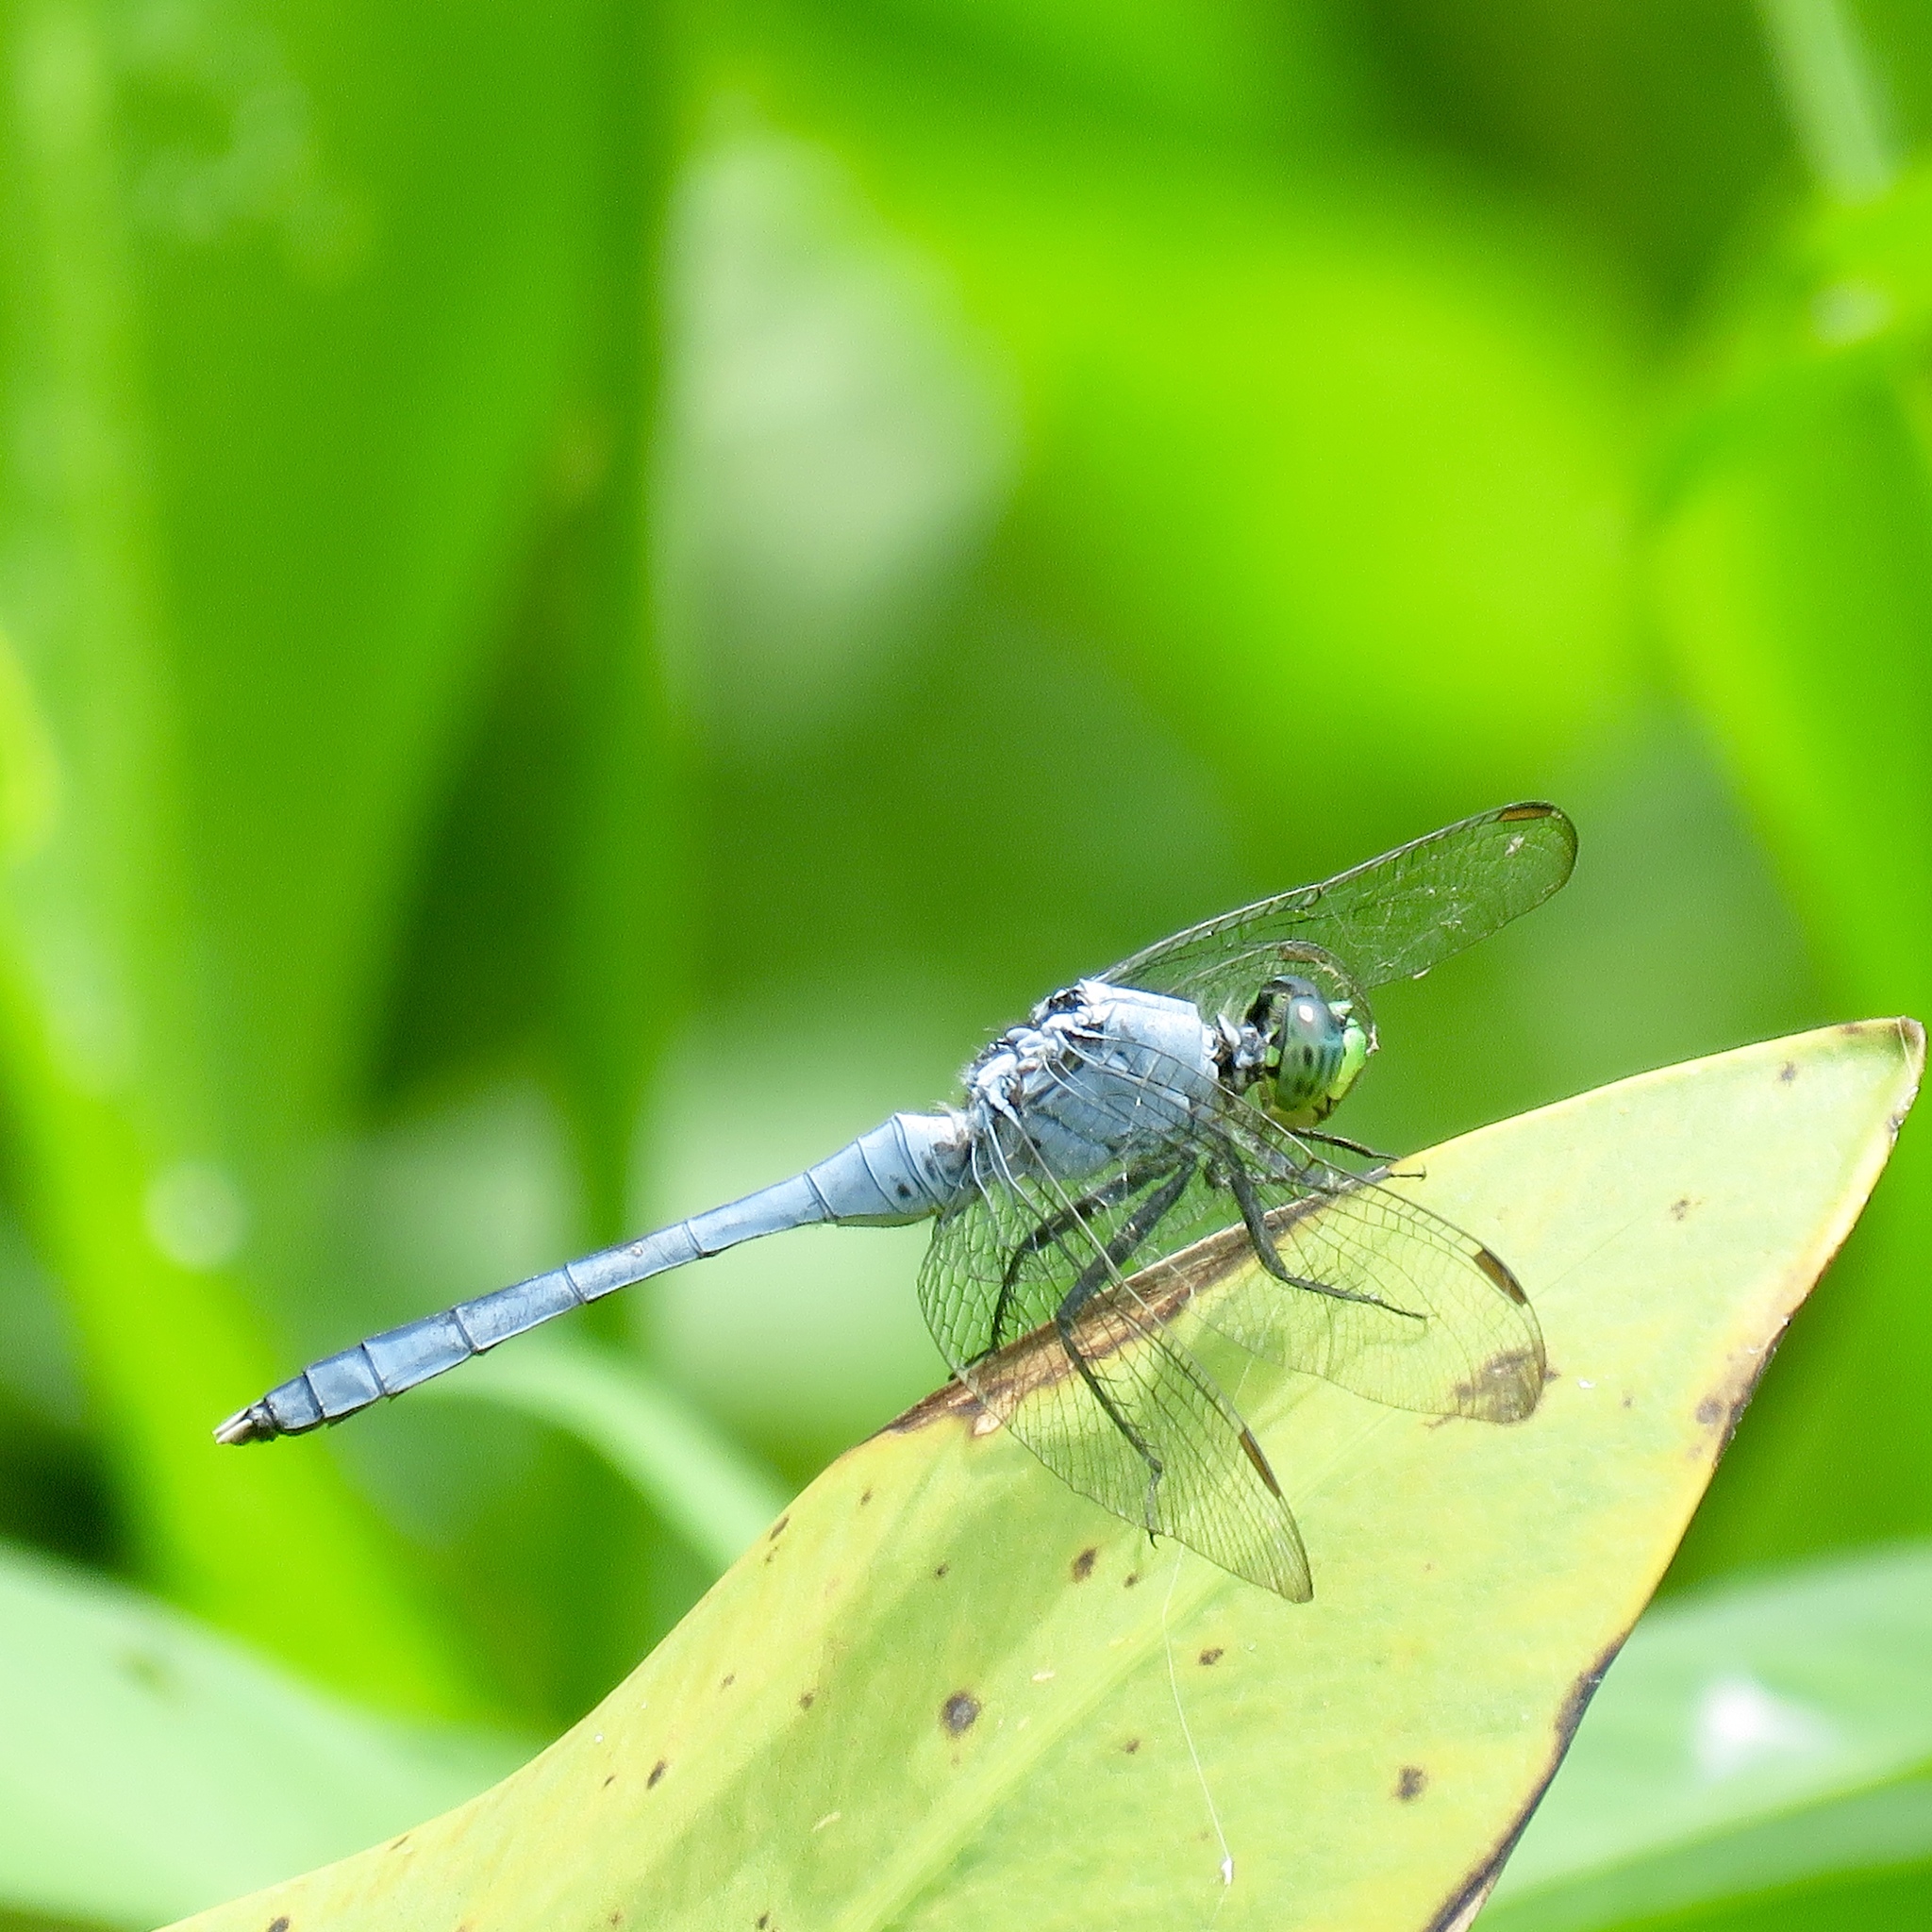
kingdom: Animalia
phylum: Arthropoda
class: Insecta
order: Odonata
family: Libellulidae
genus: Erythemis
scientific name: Erythemis simplicicollis
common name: Eastern pondhawk
